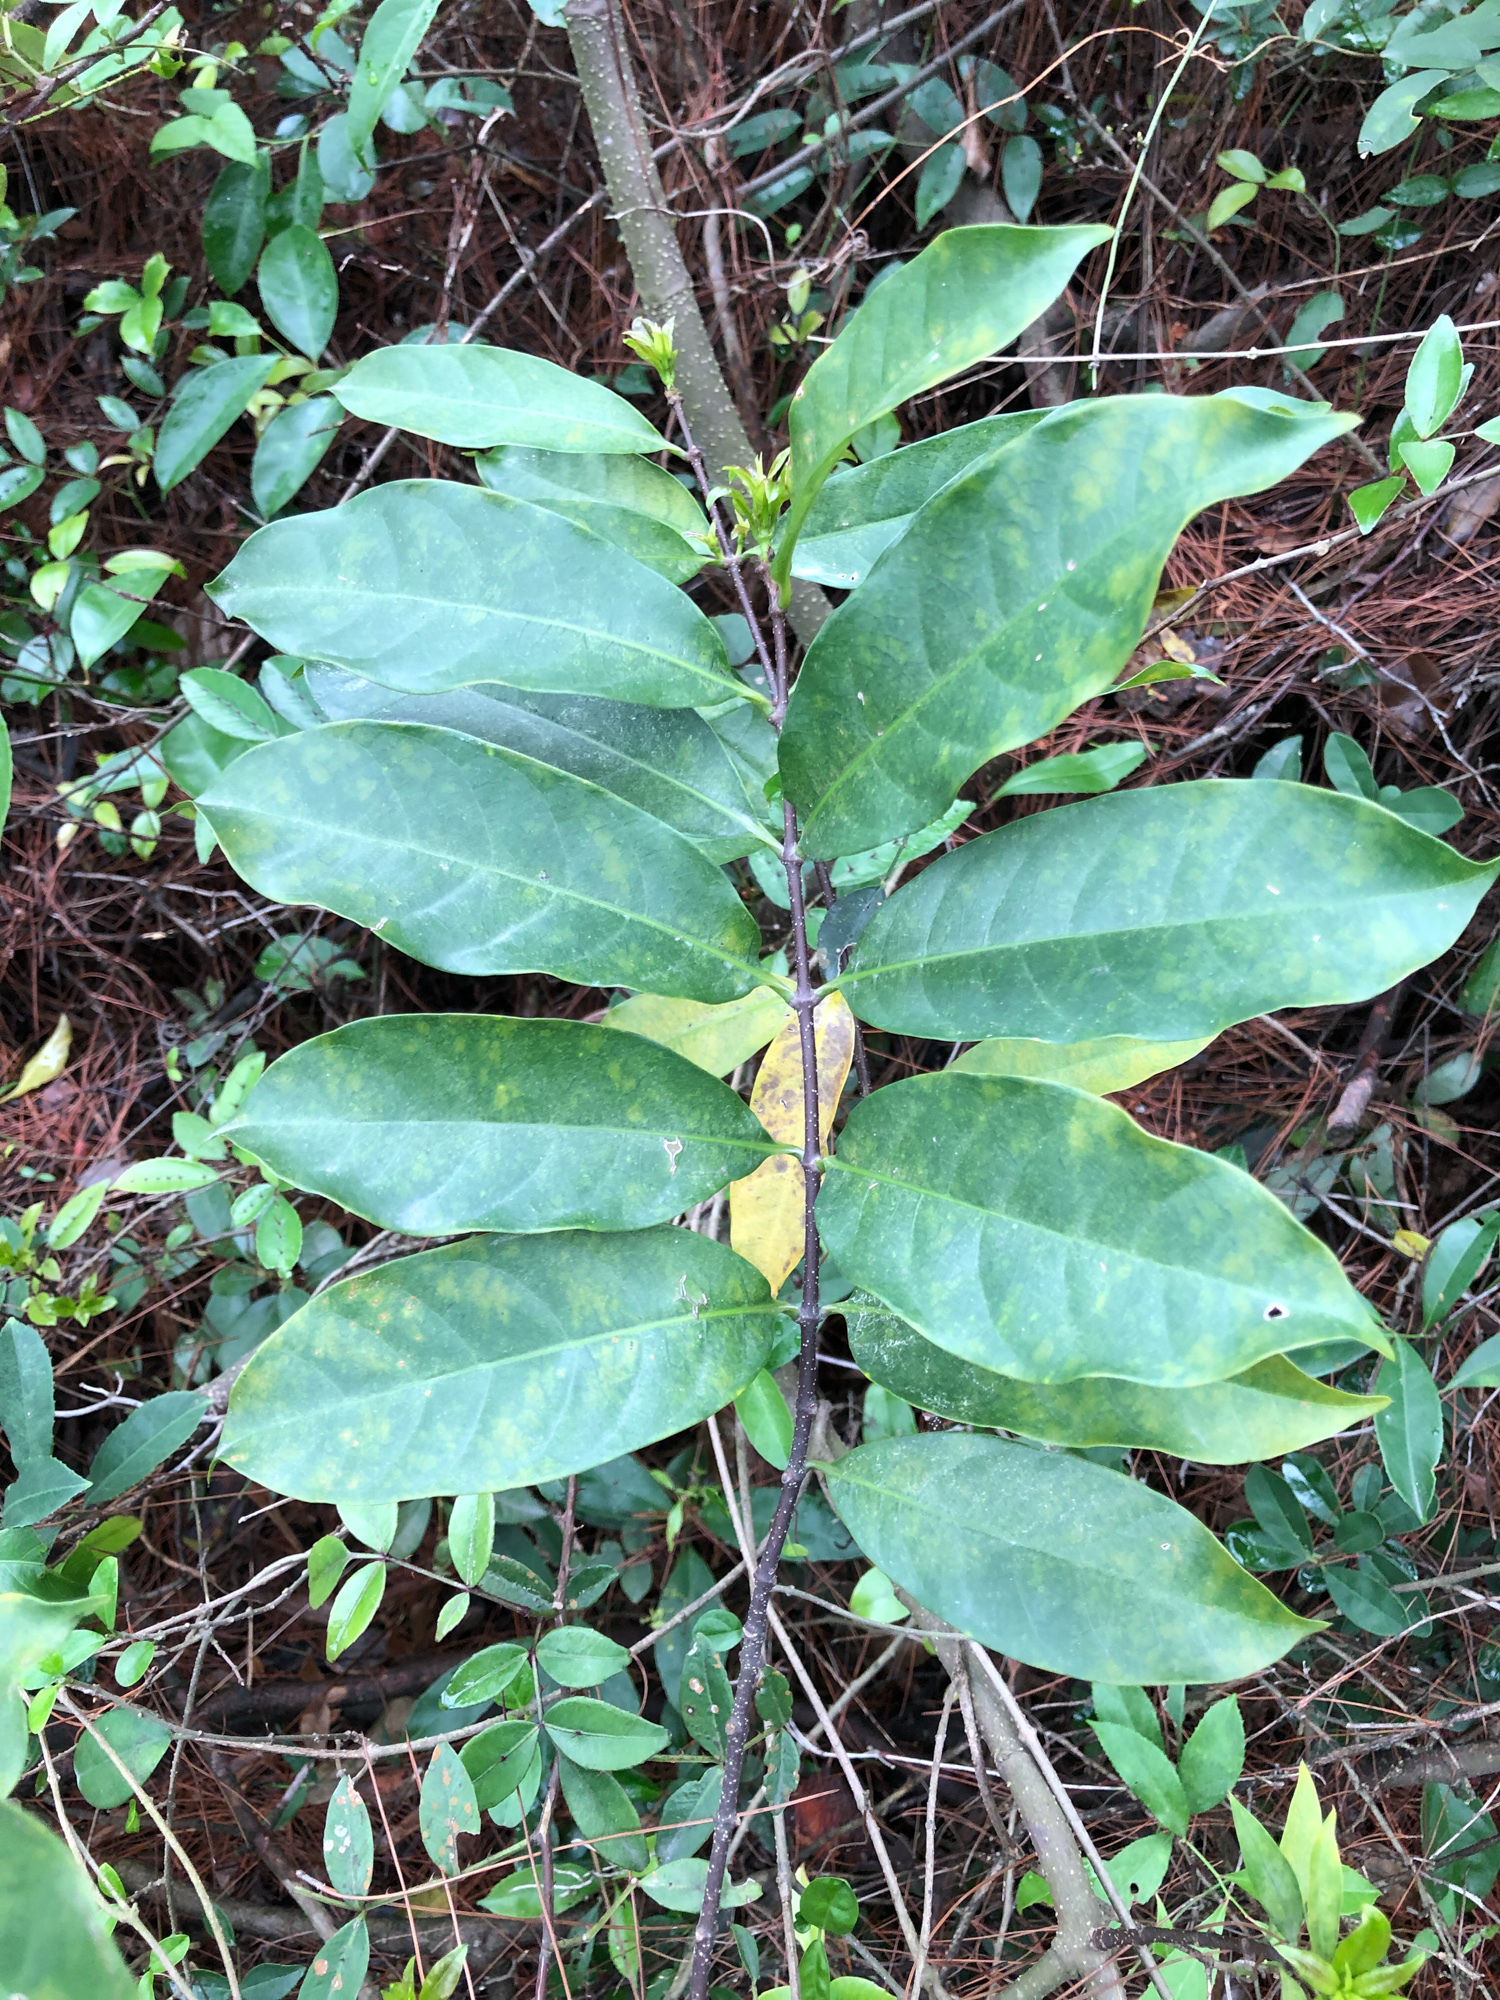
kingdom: Plantae
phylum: Tracheophyta
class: Magnoliopsida
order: Gentianales
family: Apocynaceae
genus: Strophanthus
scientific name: Strophanthus divaricatus
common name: Goat-horns
